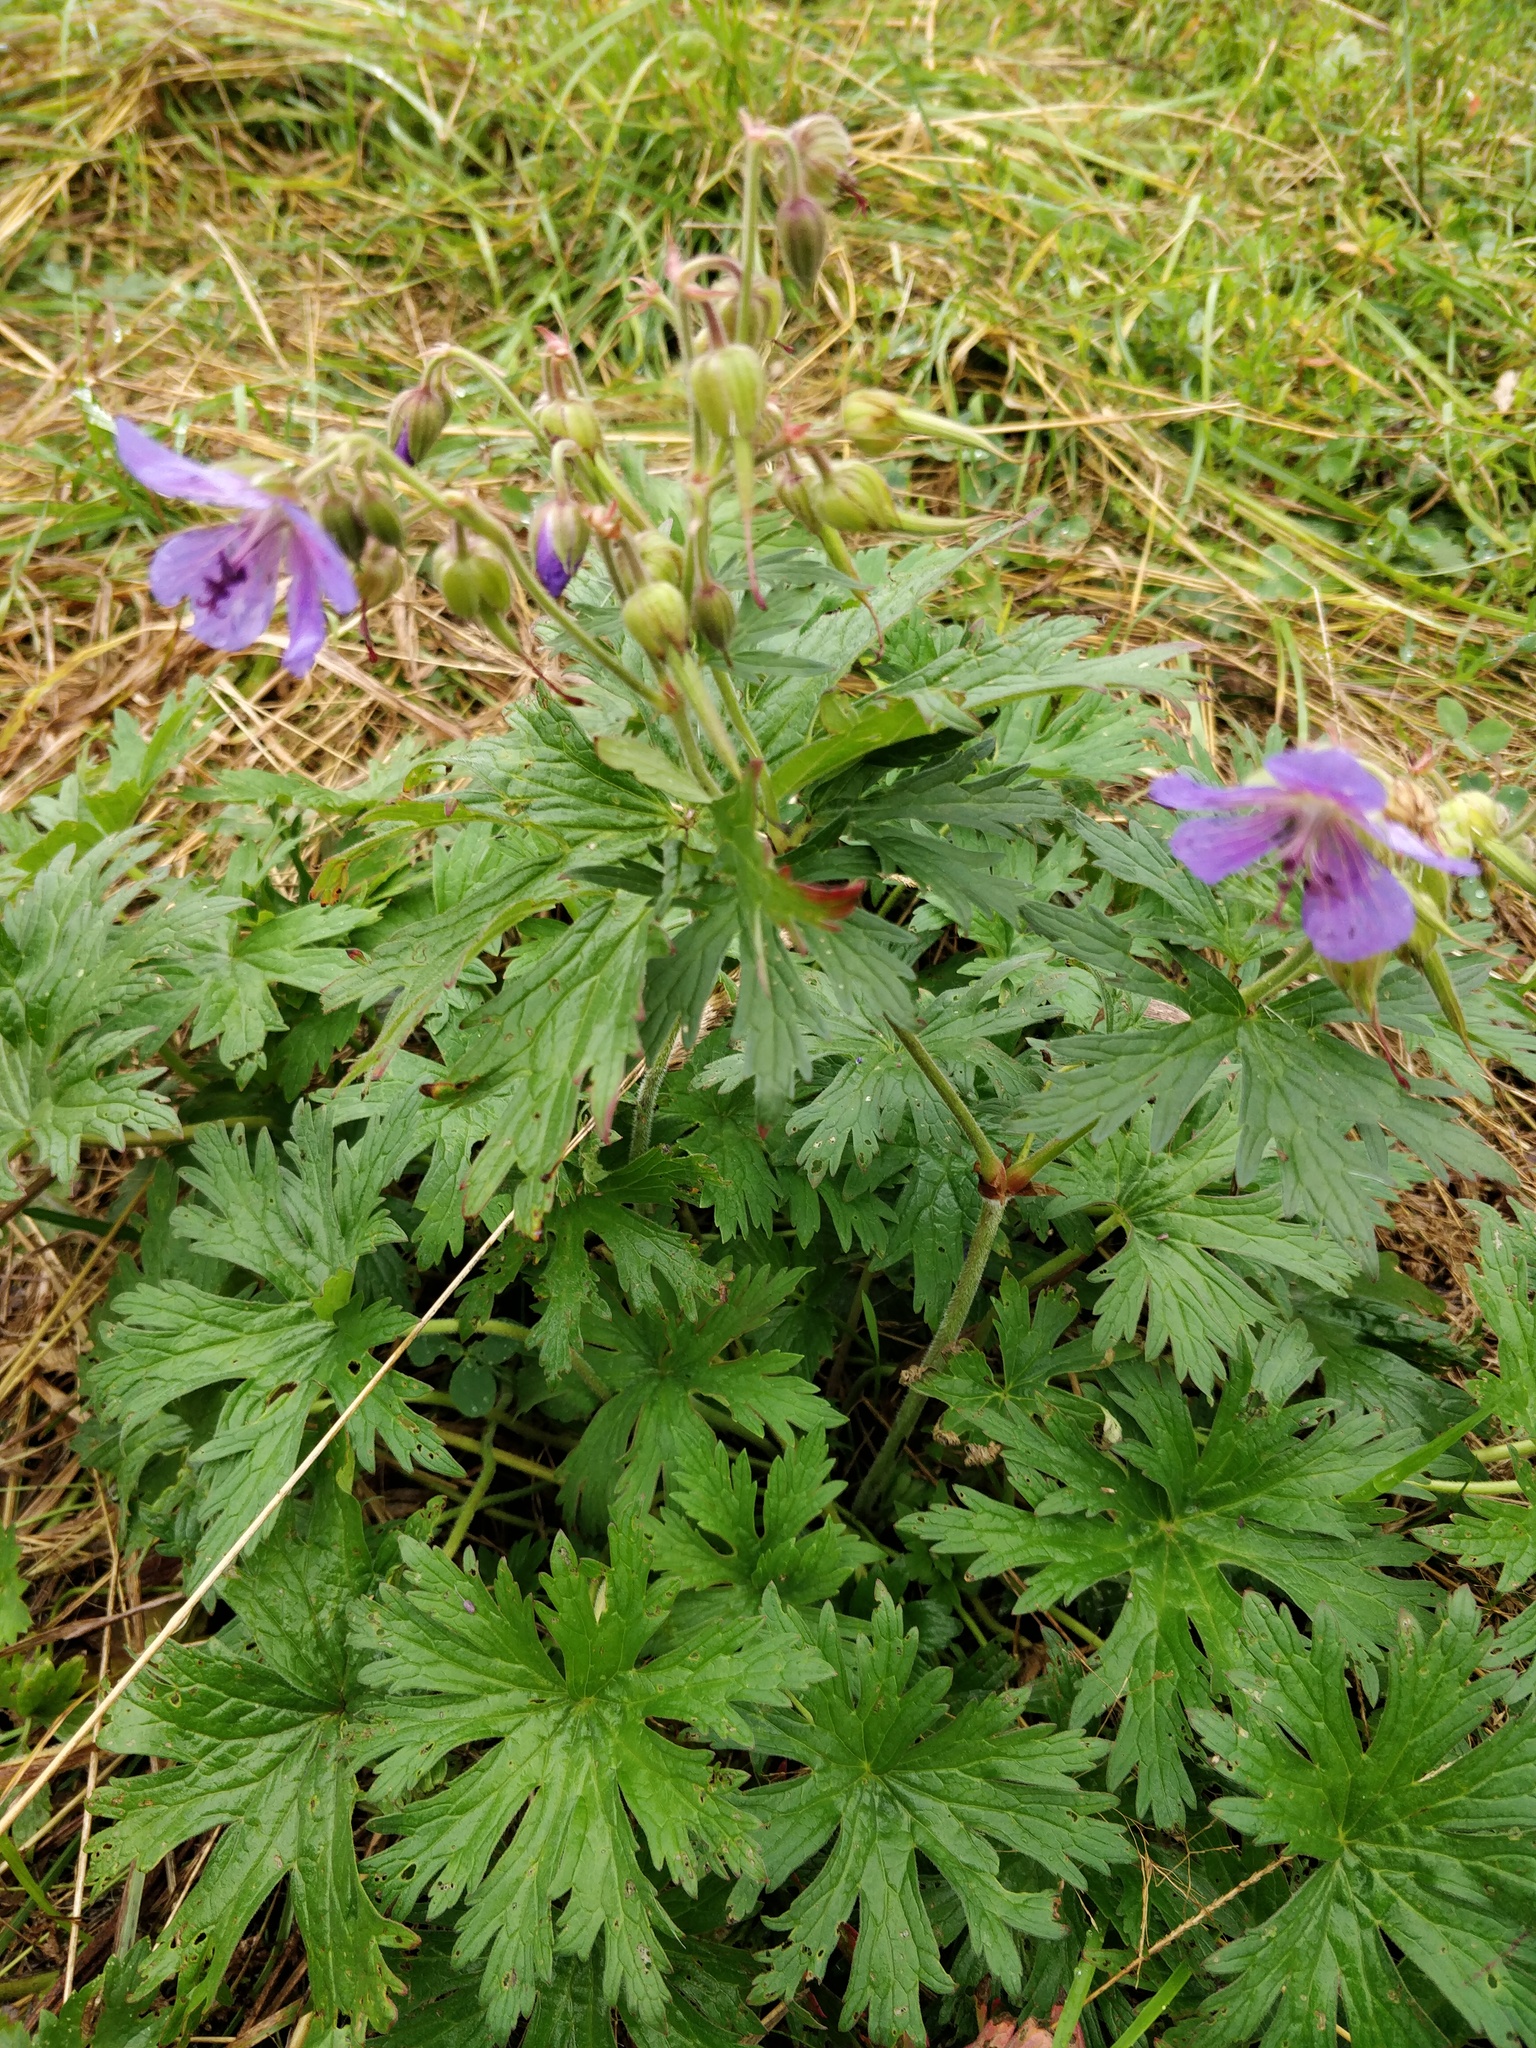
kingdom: Plantae
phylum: Tracheophyta
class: Magnoliopsida
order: Geraniales
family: Geraniaceae
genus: Geranium
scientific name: Geranium pratense
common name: Meadow crane's-bill
